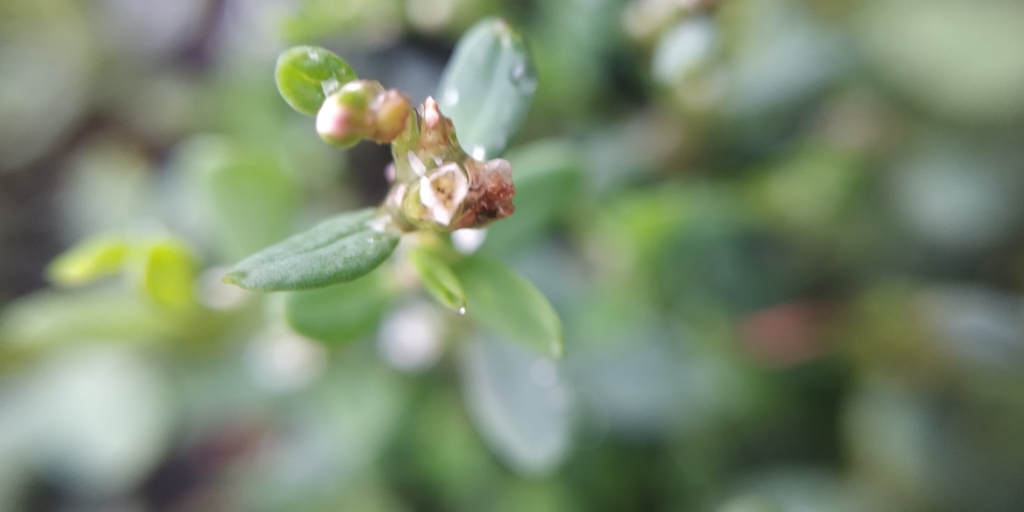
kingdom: Plantae
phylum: Tracheophyta
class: Magnoliopsida
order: Caryophyllales
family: Polygonaceae
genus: Polygonum
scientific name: Polygonum
